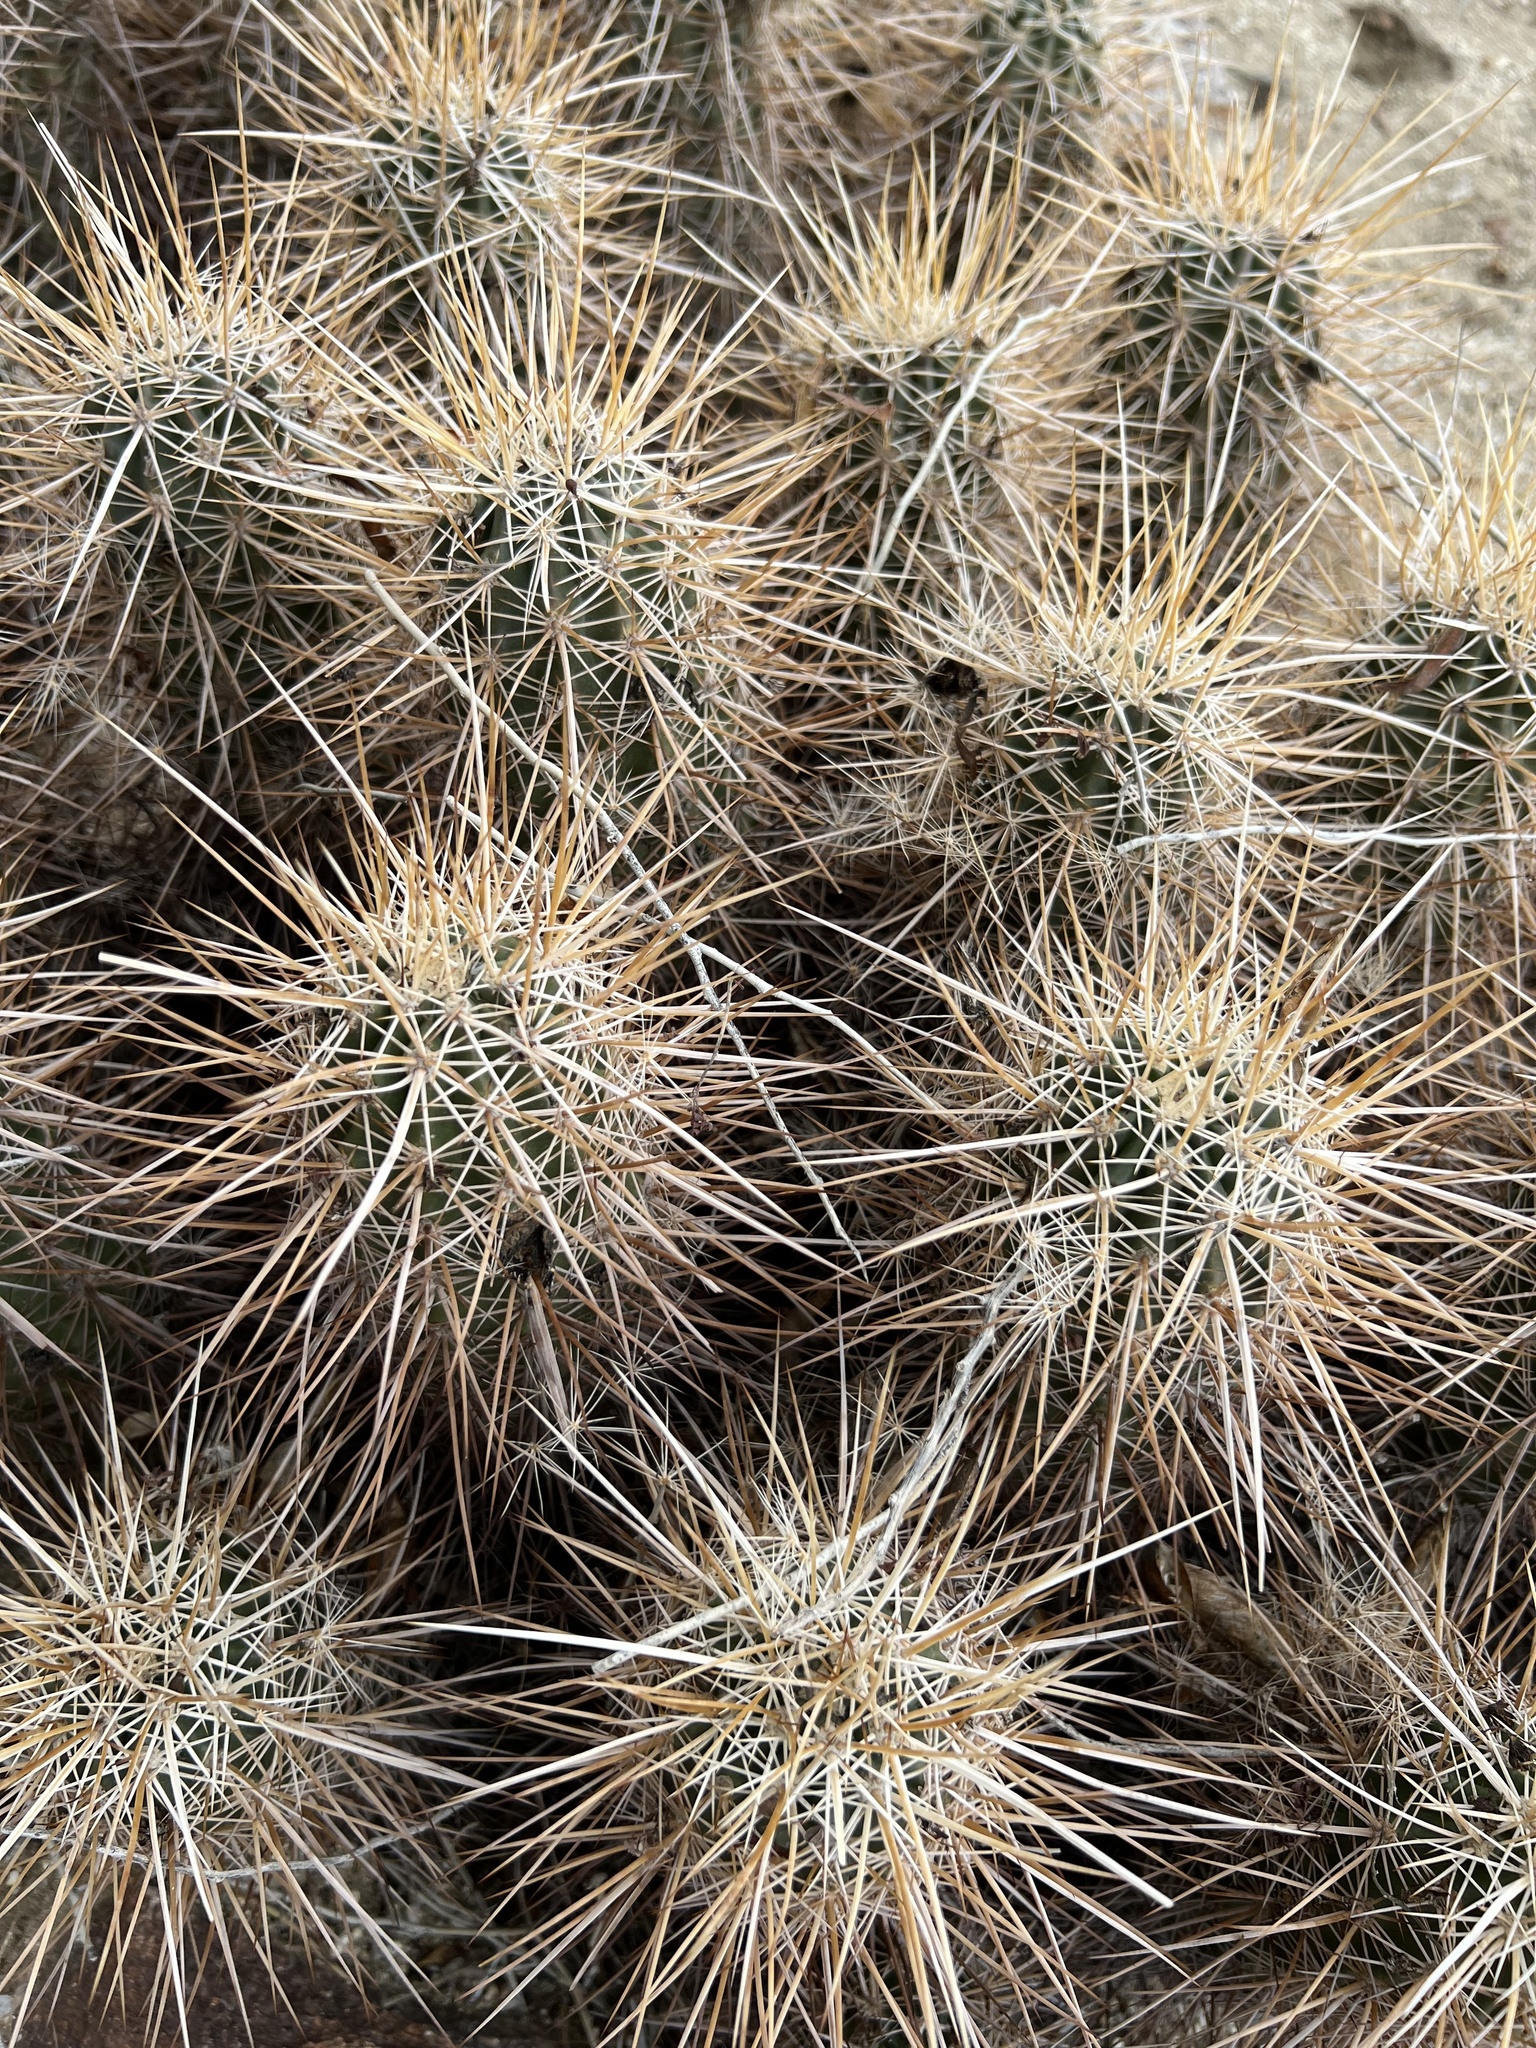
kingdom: Plantae
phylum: Tracheophyta
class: Magnoliopsida
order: Caryophyllales
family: Cactaceae
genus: Echinocereus
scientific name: Echinocereus engelmannii
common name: Engelmann's hedgehog cactus
